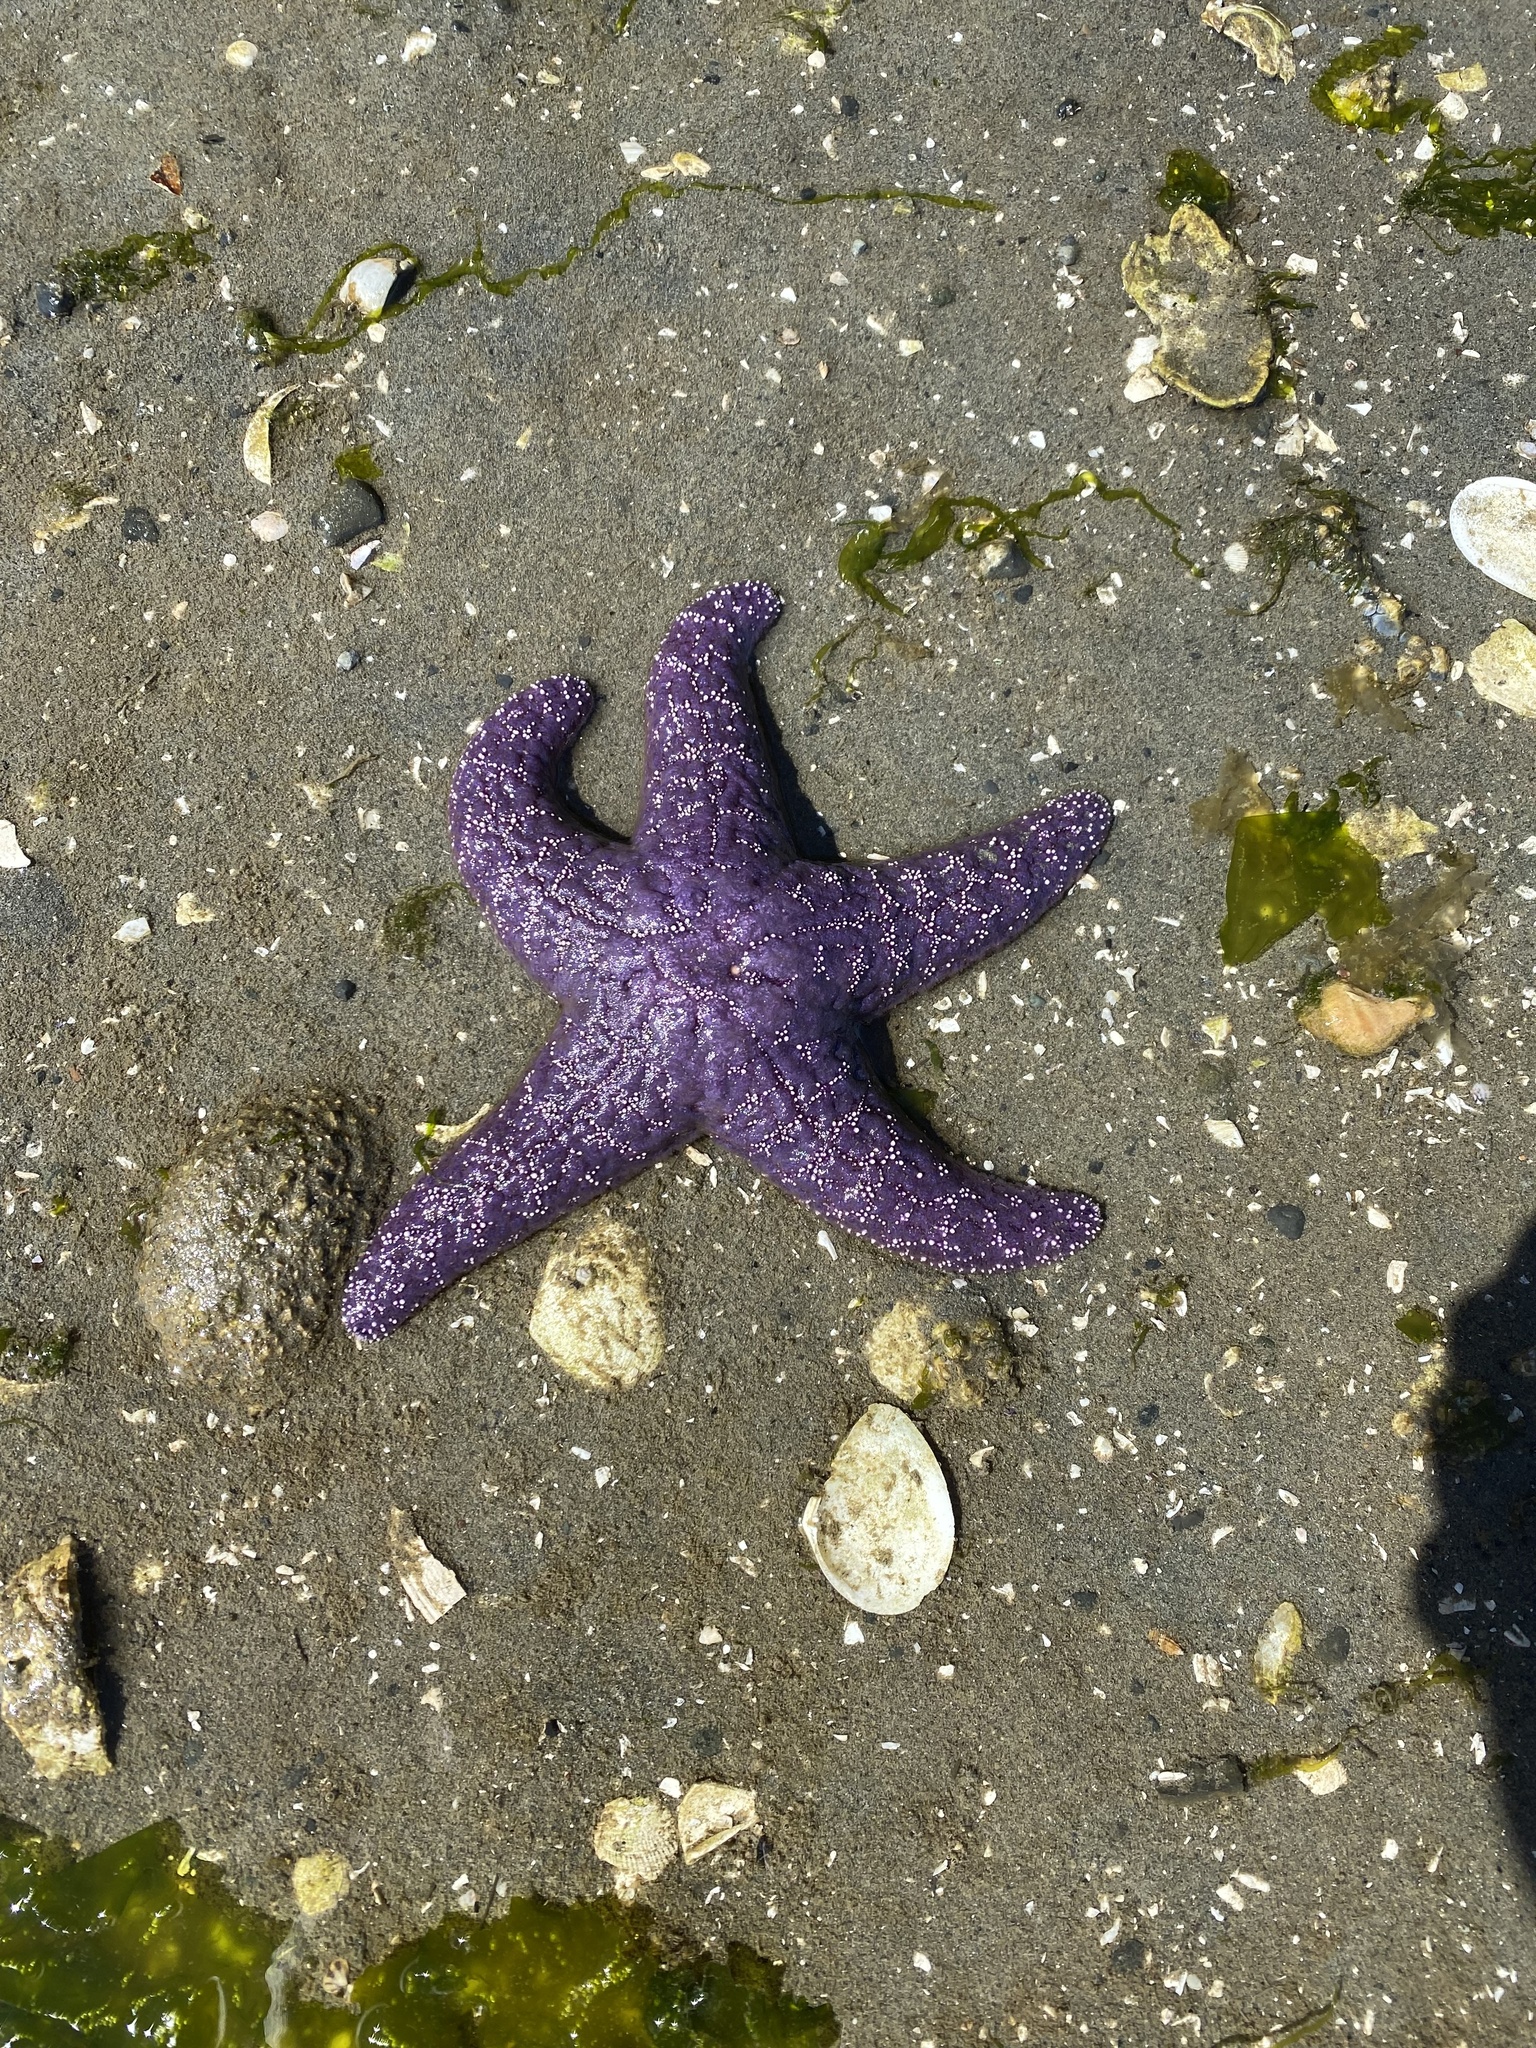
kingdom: Animalia
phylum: Echinodermata
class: Asteroidea
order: Forcipulatida
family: Asteriidae
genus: Pisaster
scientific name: Pisaster ochraceus
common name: Ochre stars
